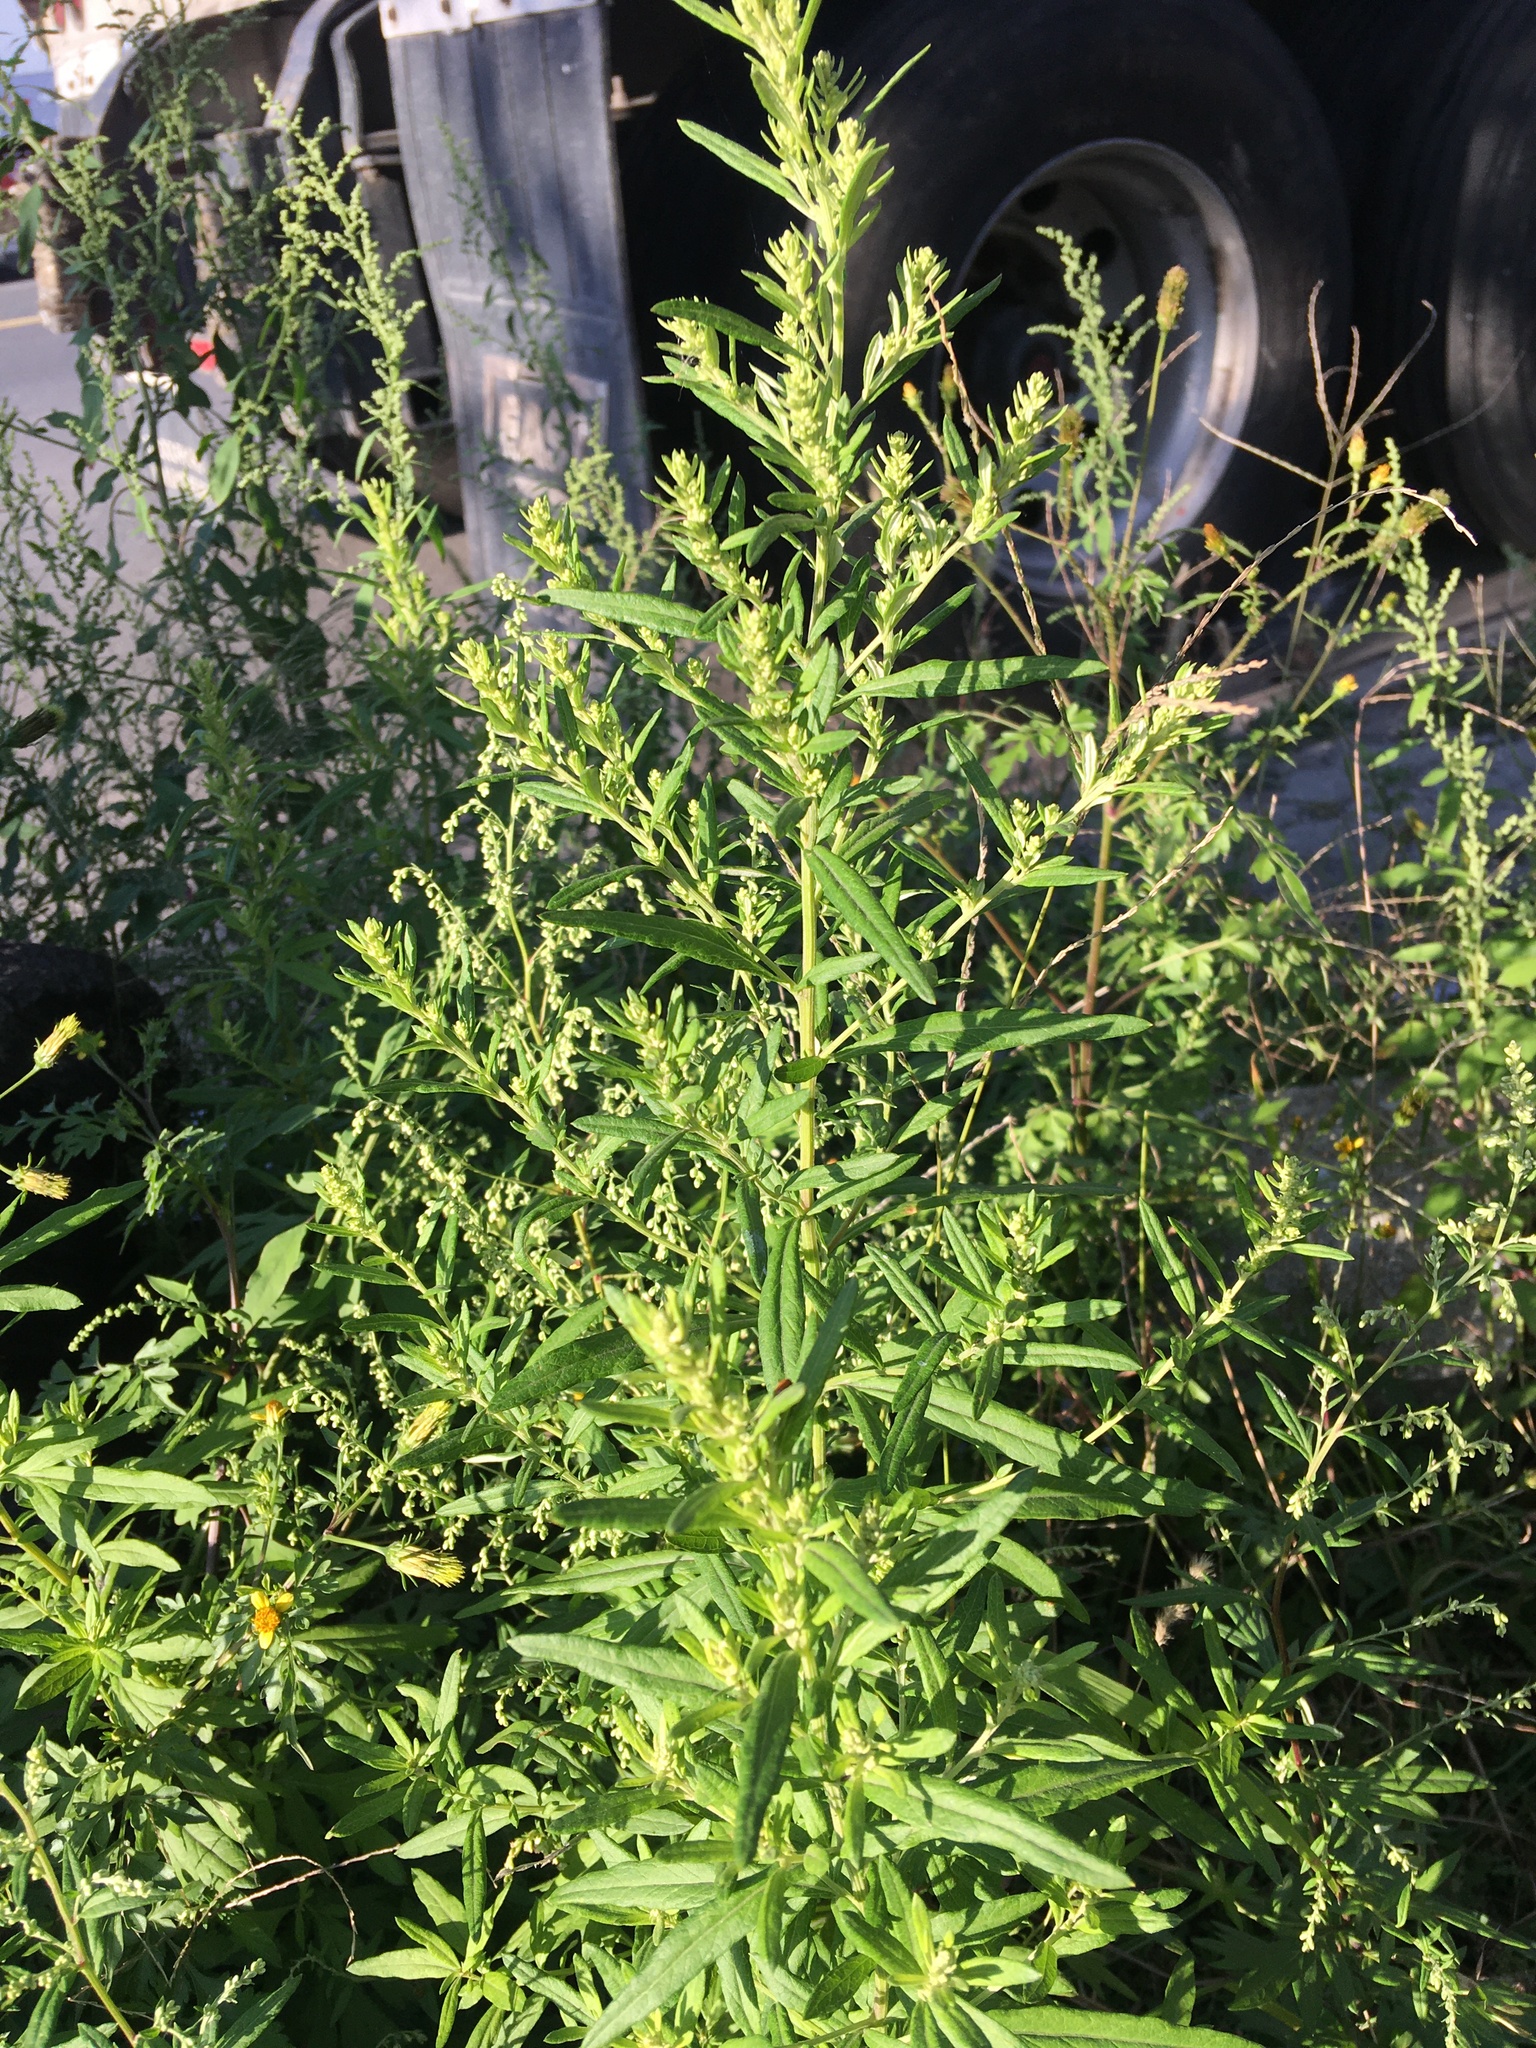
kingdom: Plantae
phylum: Tracheophyta
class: Magnoliopsida
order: Asterales
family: Asteraceae
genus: Artemisia
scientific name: Artemisia vulgaris
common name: Mugwort
